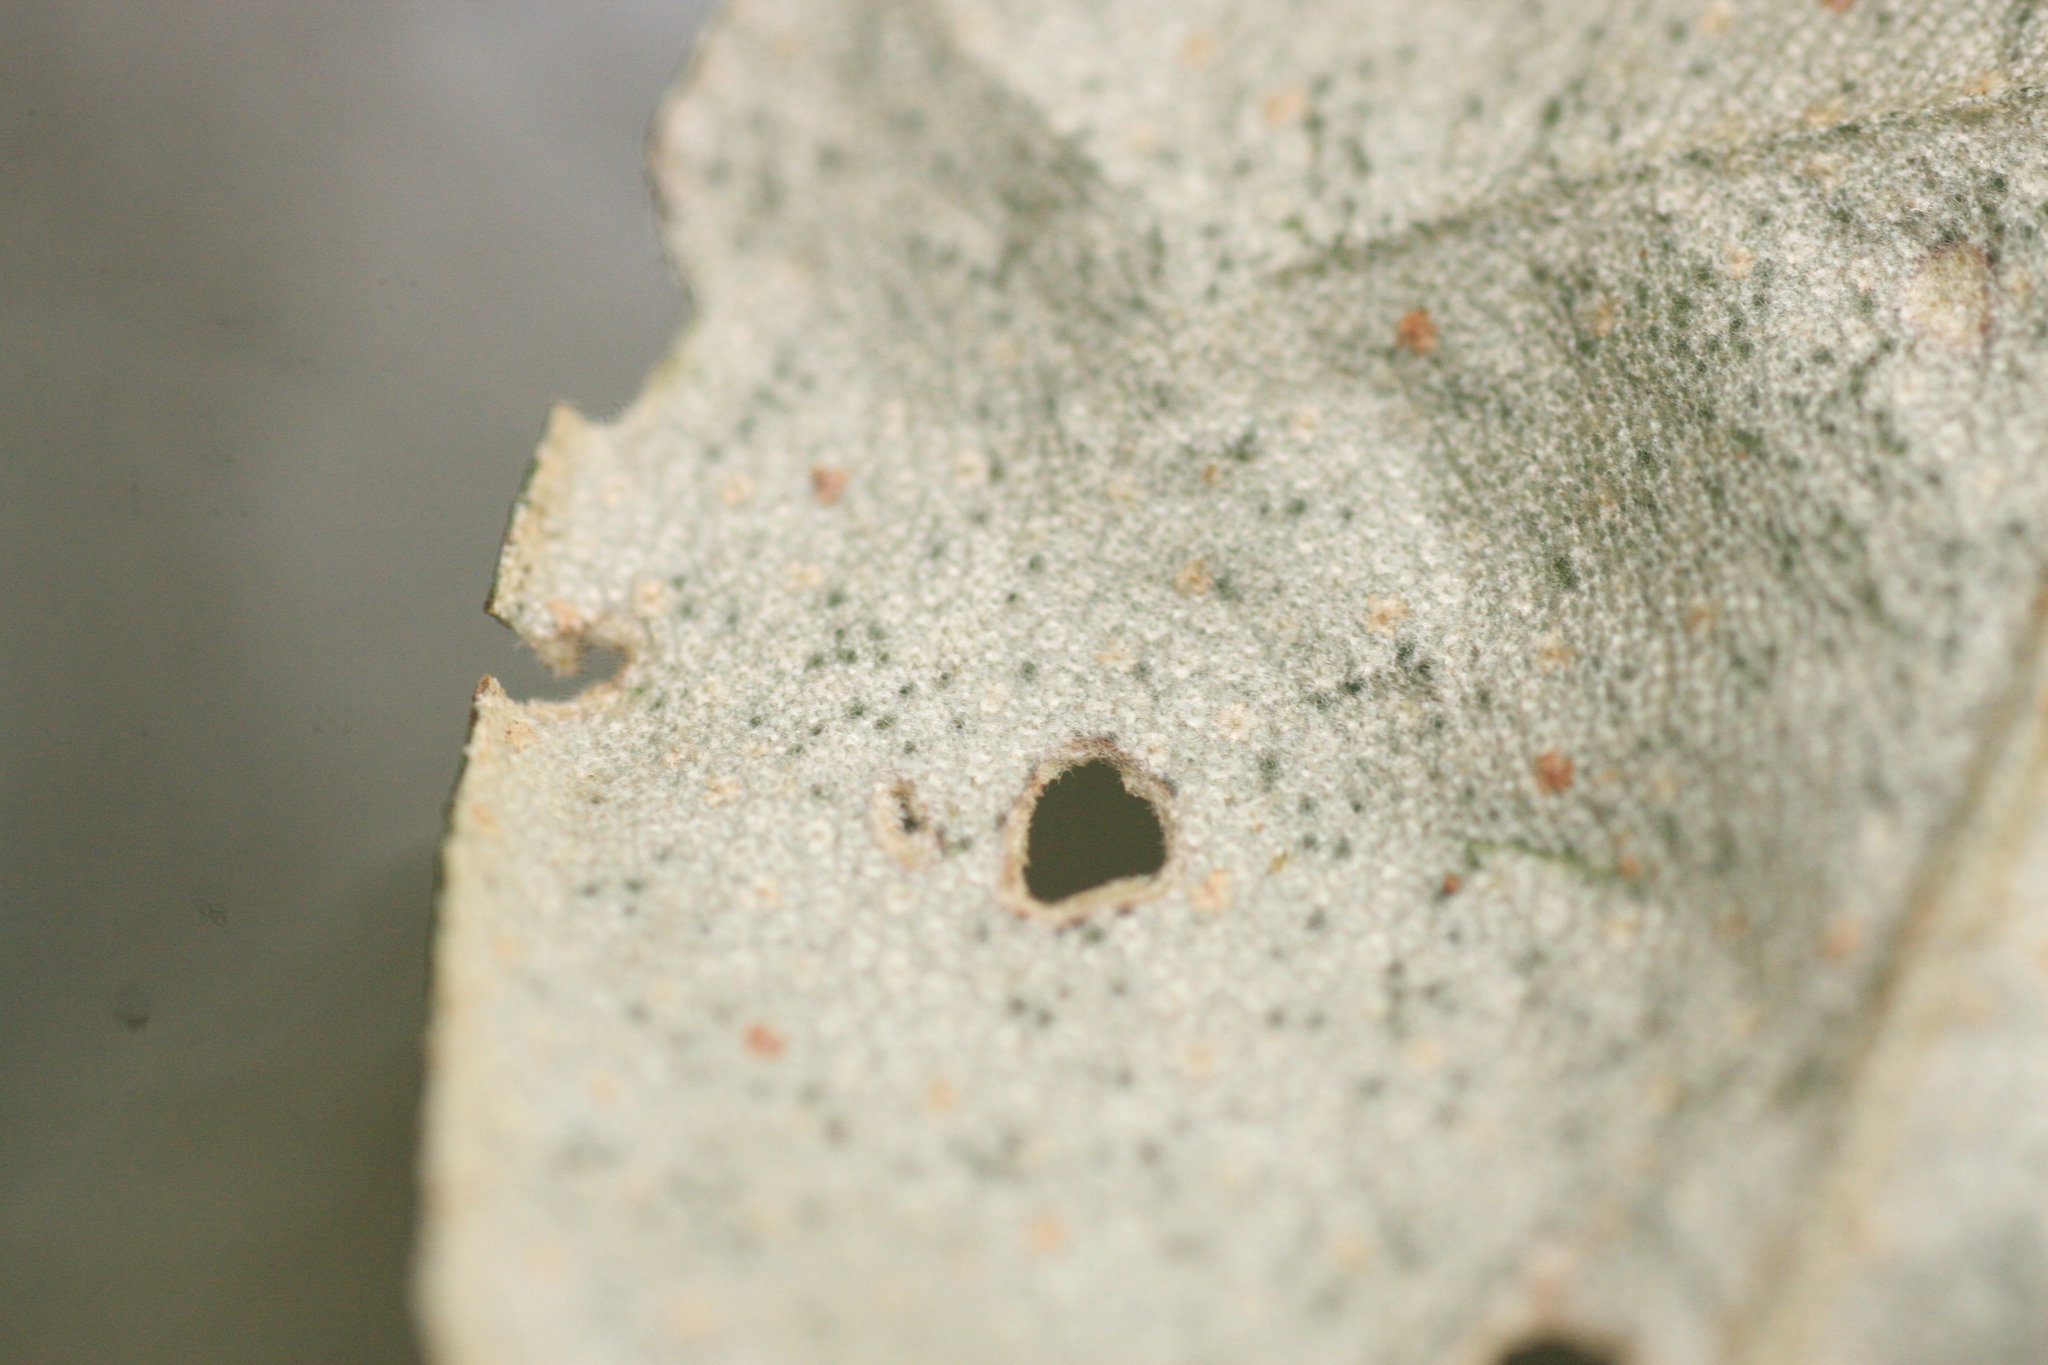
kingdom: Plantae
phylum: Tracheophyta
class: Magnoliopsida
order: Rosales
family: Elaeagnaceae
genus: Elaeagnus
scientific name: Elaeagnus conferta
